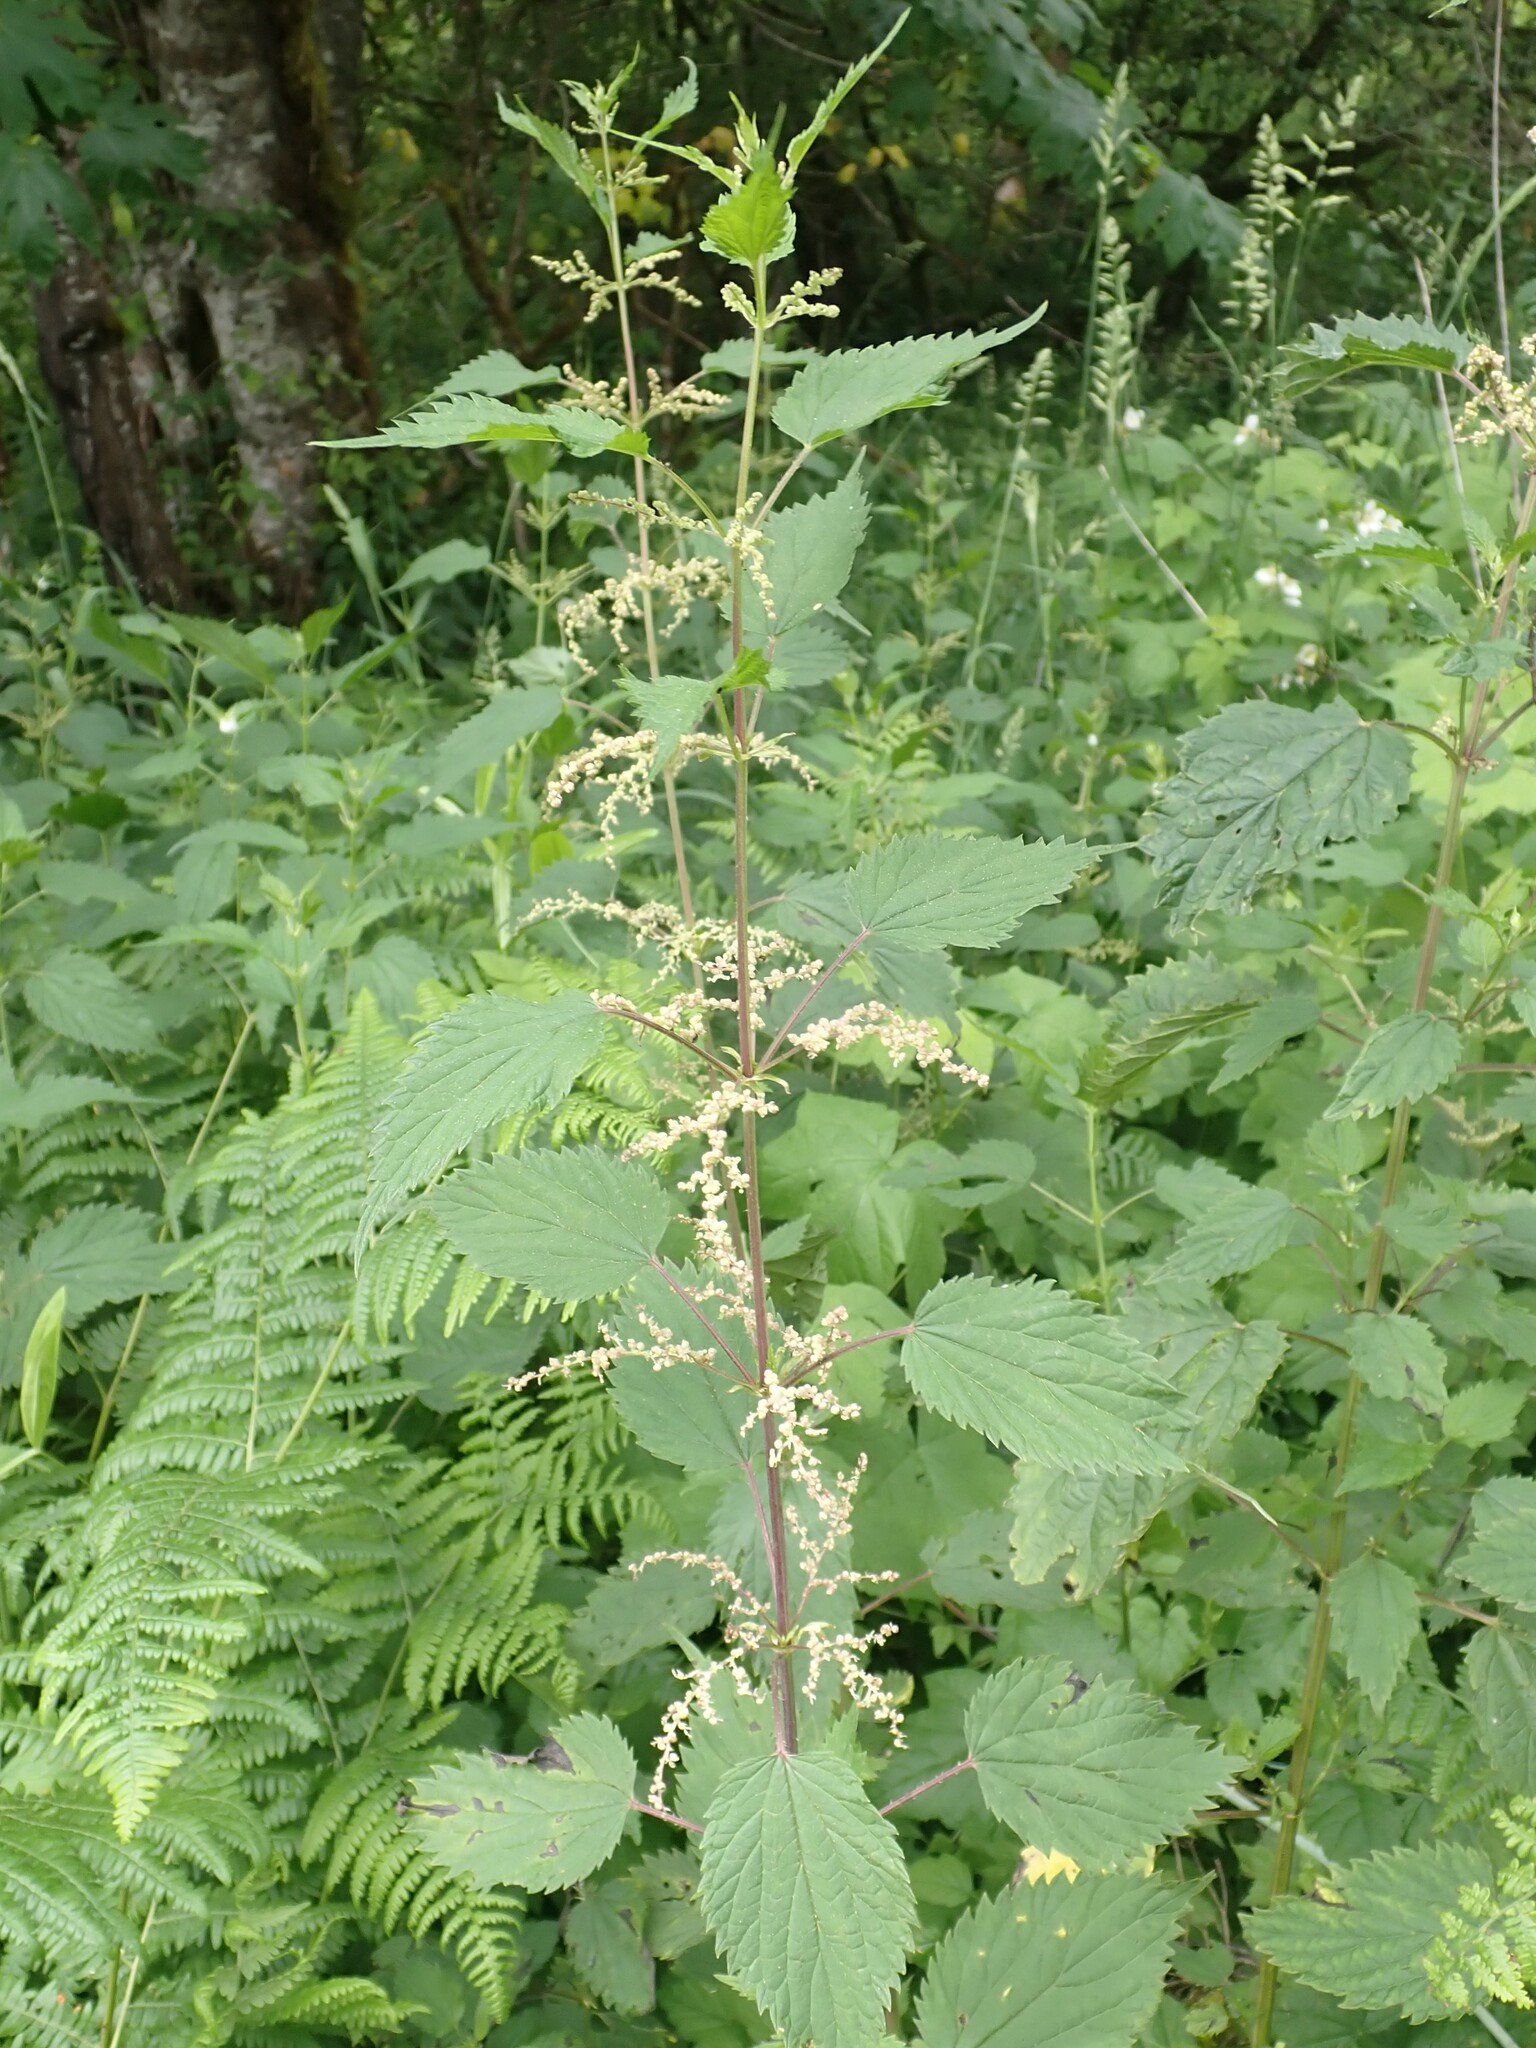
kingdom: Plantae
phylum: Tracheophyta
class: Magnoliopsida
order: Rosales
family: Urticaceae
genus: Urtica
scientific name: Urtica gracilis
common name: Slender stinging nettle
